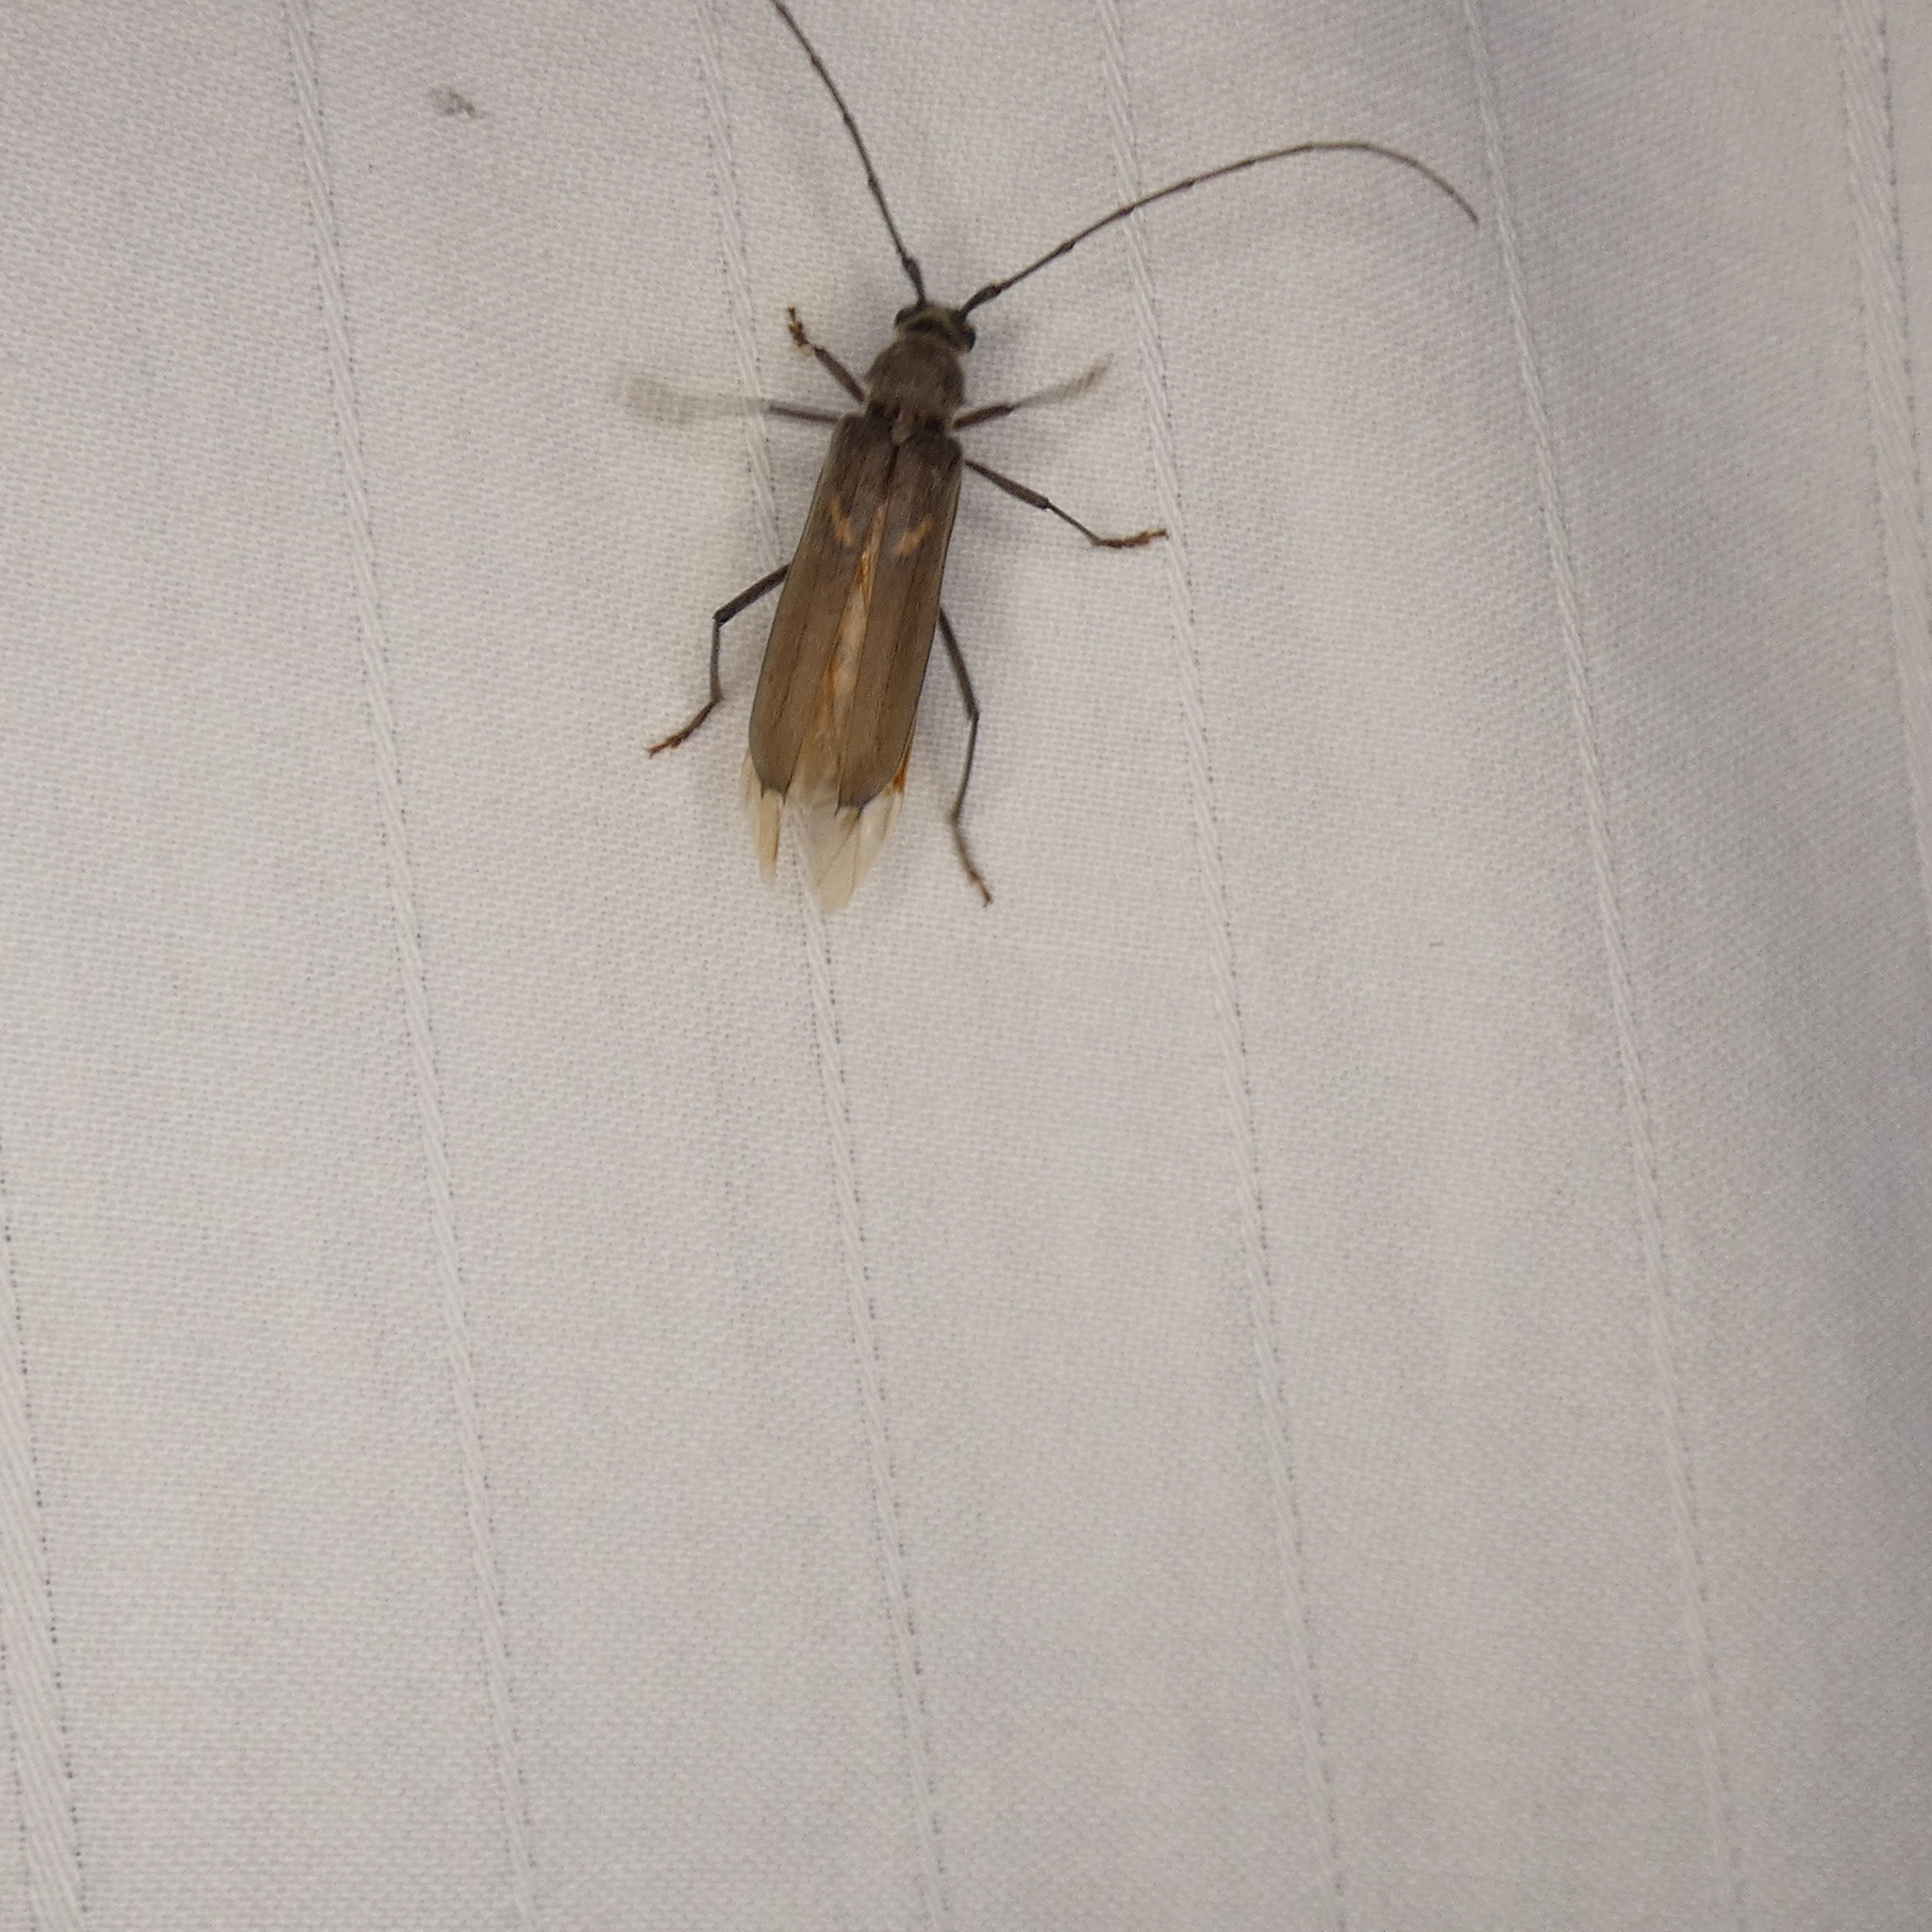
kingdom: Animalia
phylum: Arthropoda
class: Insecta
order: Coleoptera
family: Cerambycidae
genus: Knulliana
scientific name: Knulliana cincta
